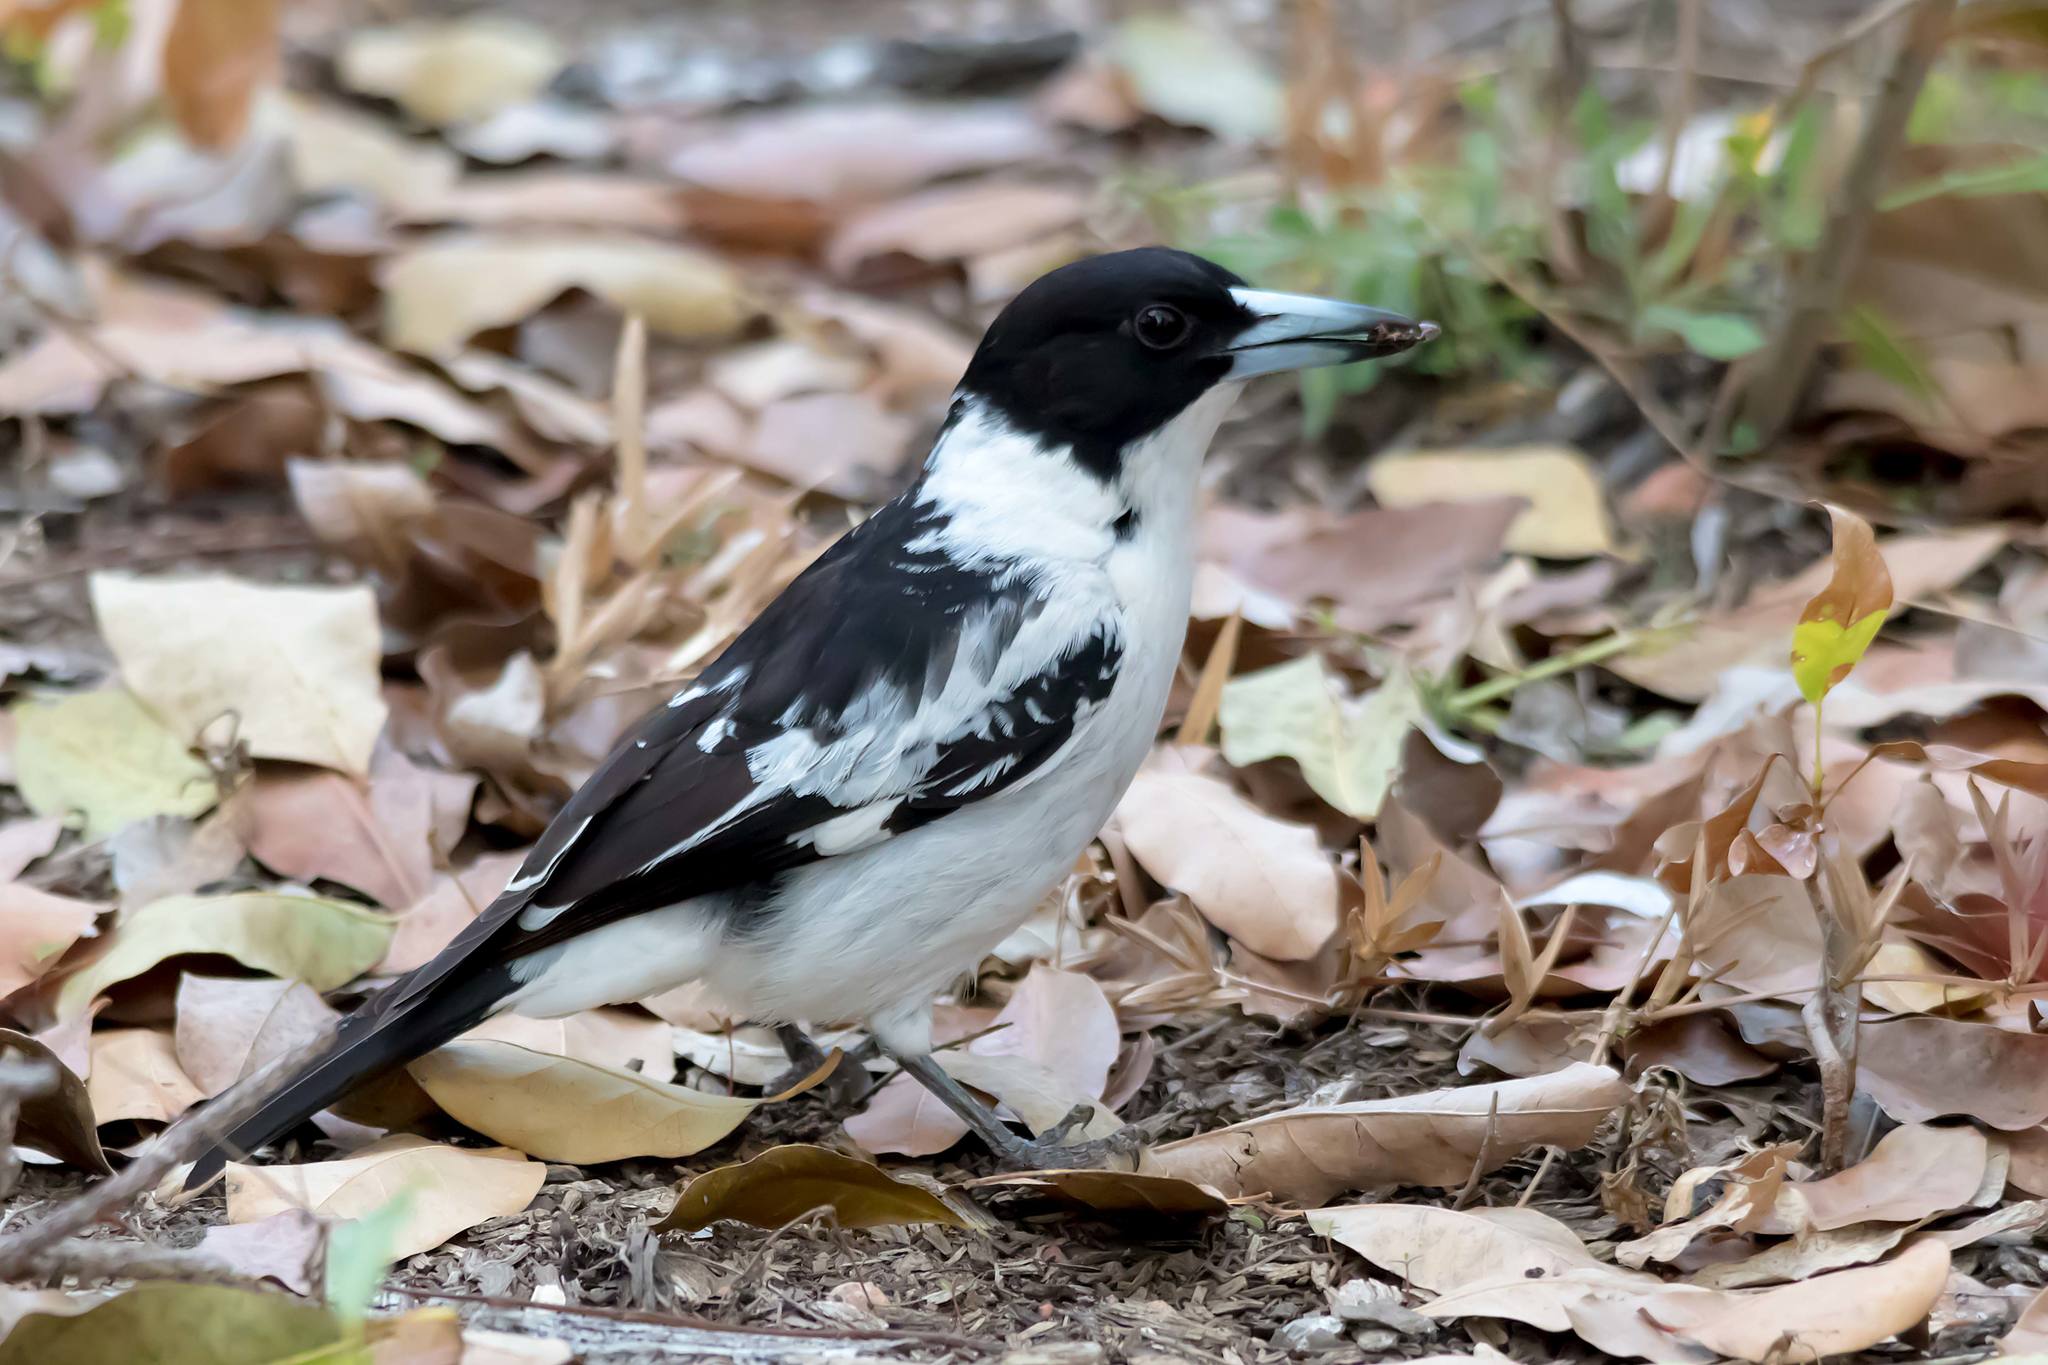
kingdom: Animalia
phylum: Chordata
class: Aves
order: Passeriformes
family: Cracticidae
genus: Cracticus
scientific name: Cracticus mentalis
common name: Black-backed butcherbird
